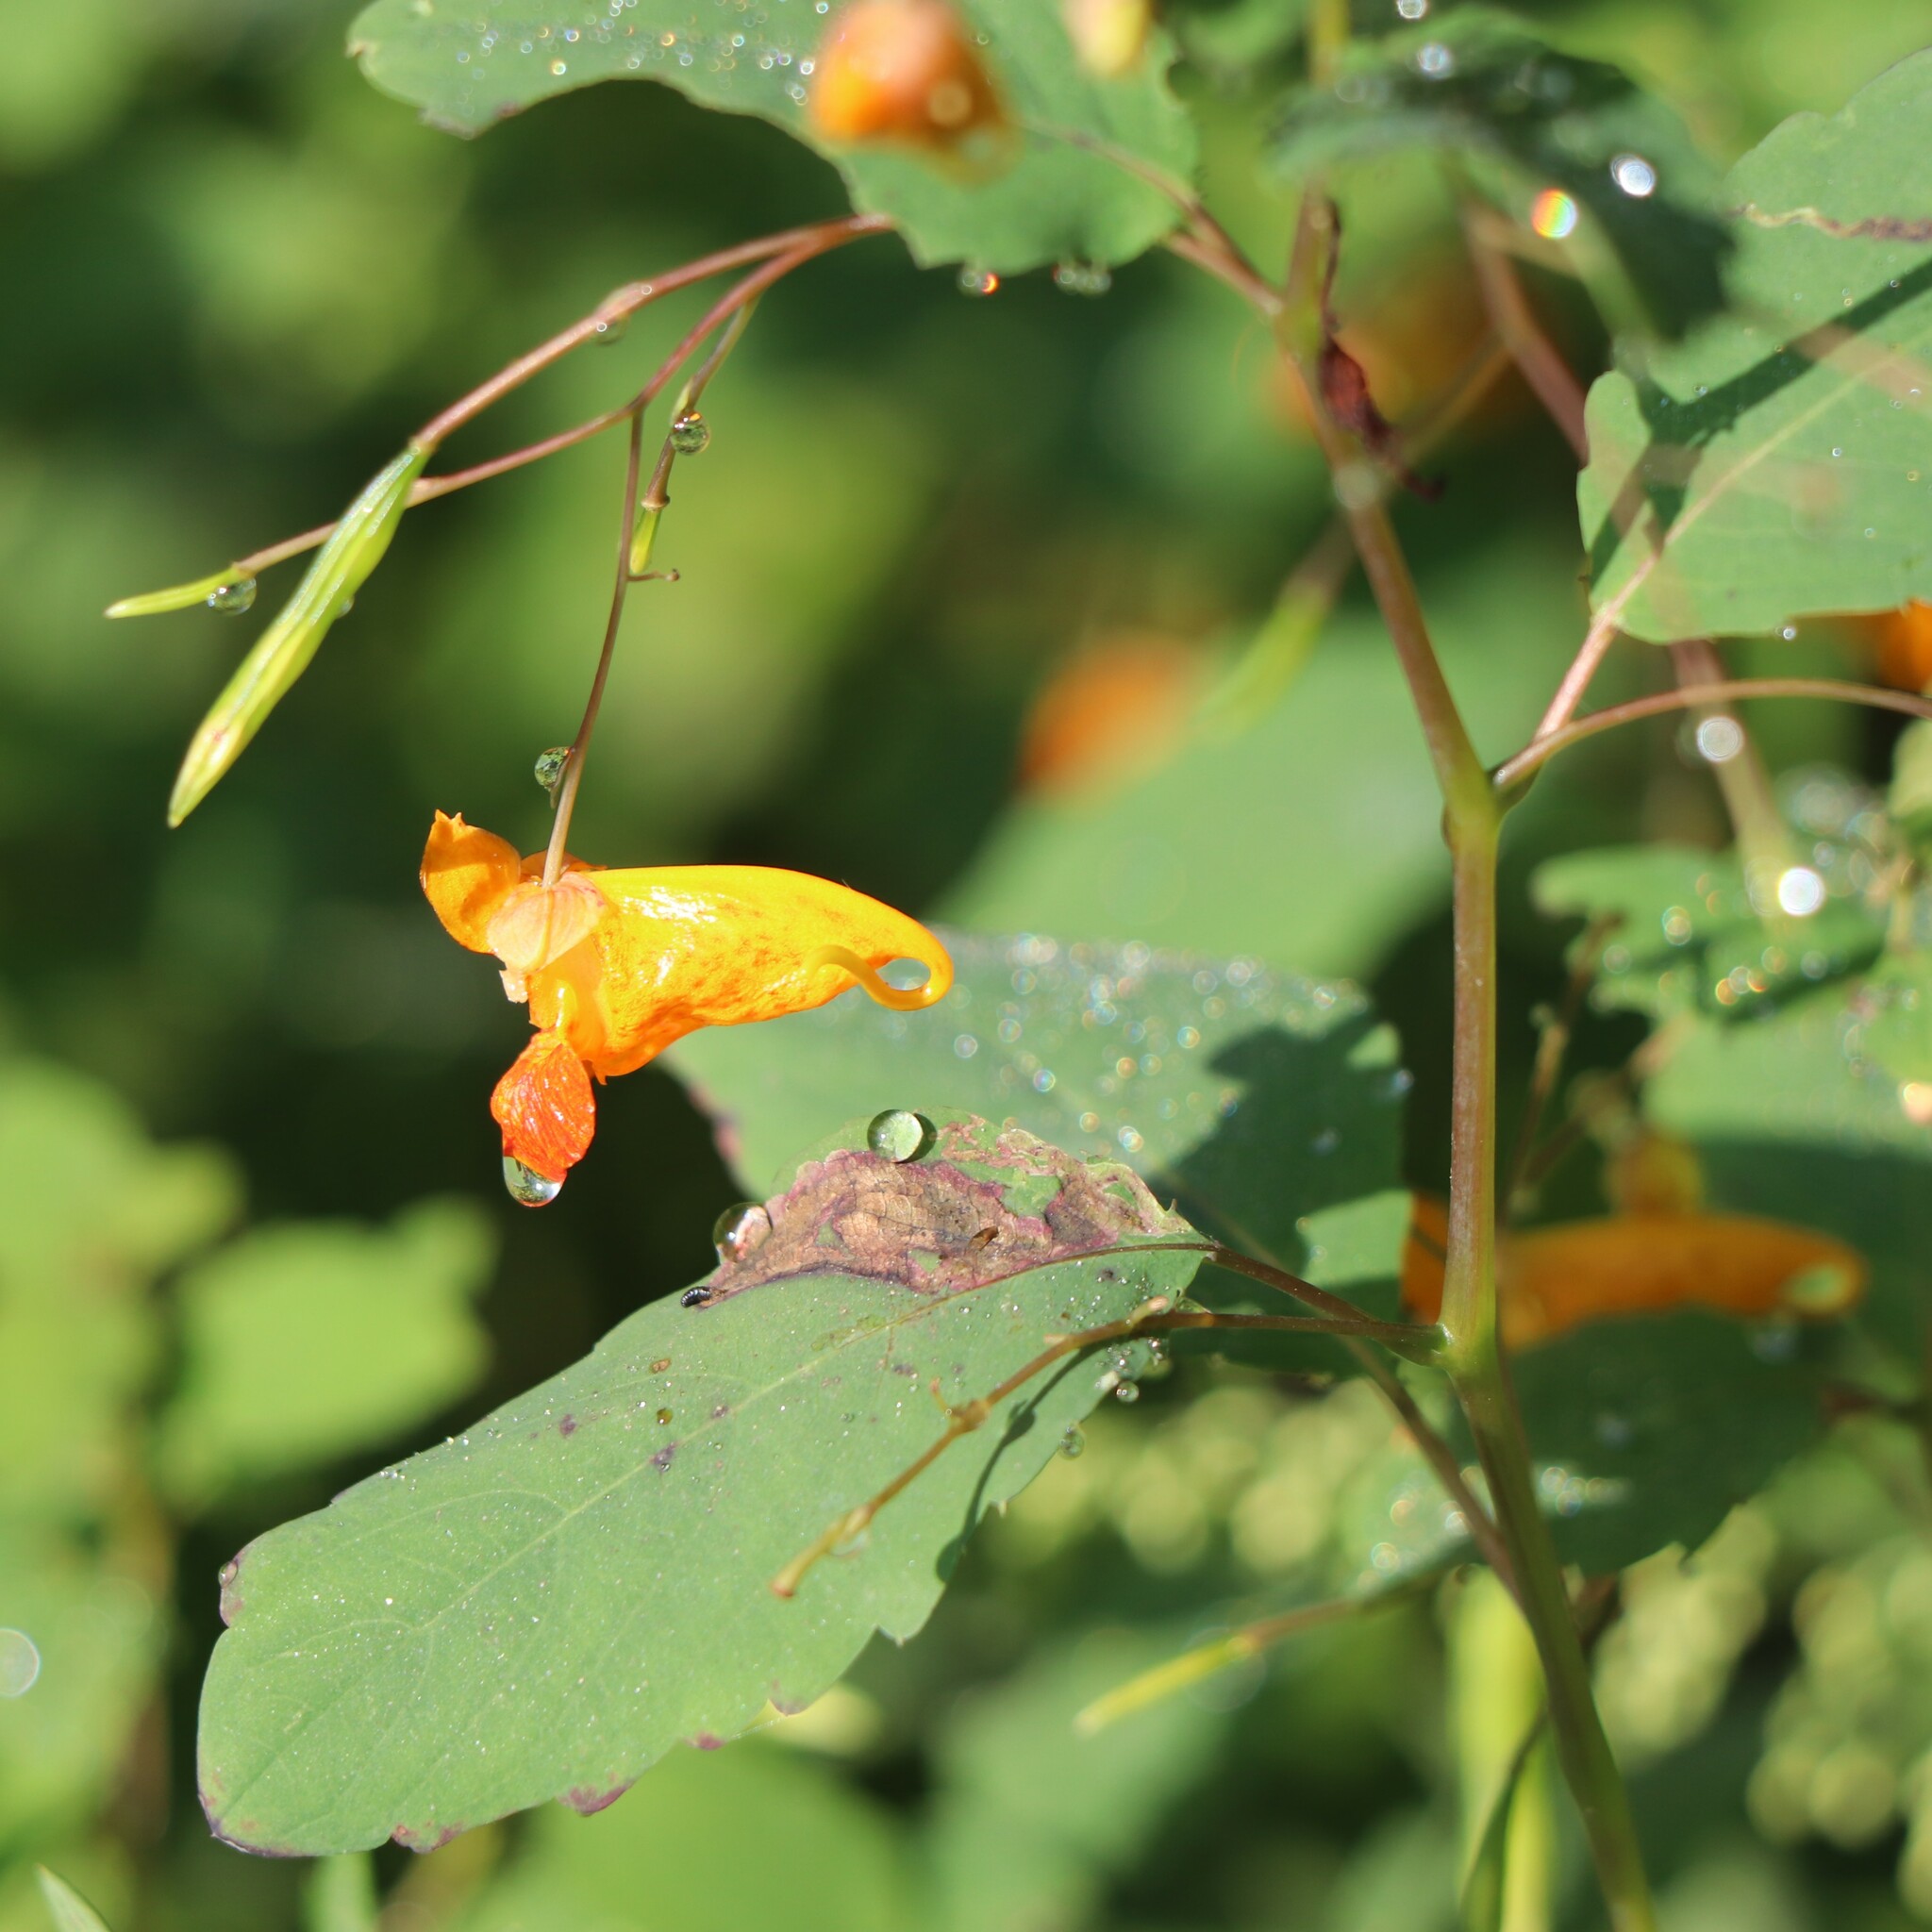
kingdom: Plantae
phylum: Tracheophyta
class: Magnoliopsida
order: Ericales
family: Balsaminaceae
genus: Impatiens
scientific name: Impatiens capensis
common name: Orange balsam
